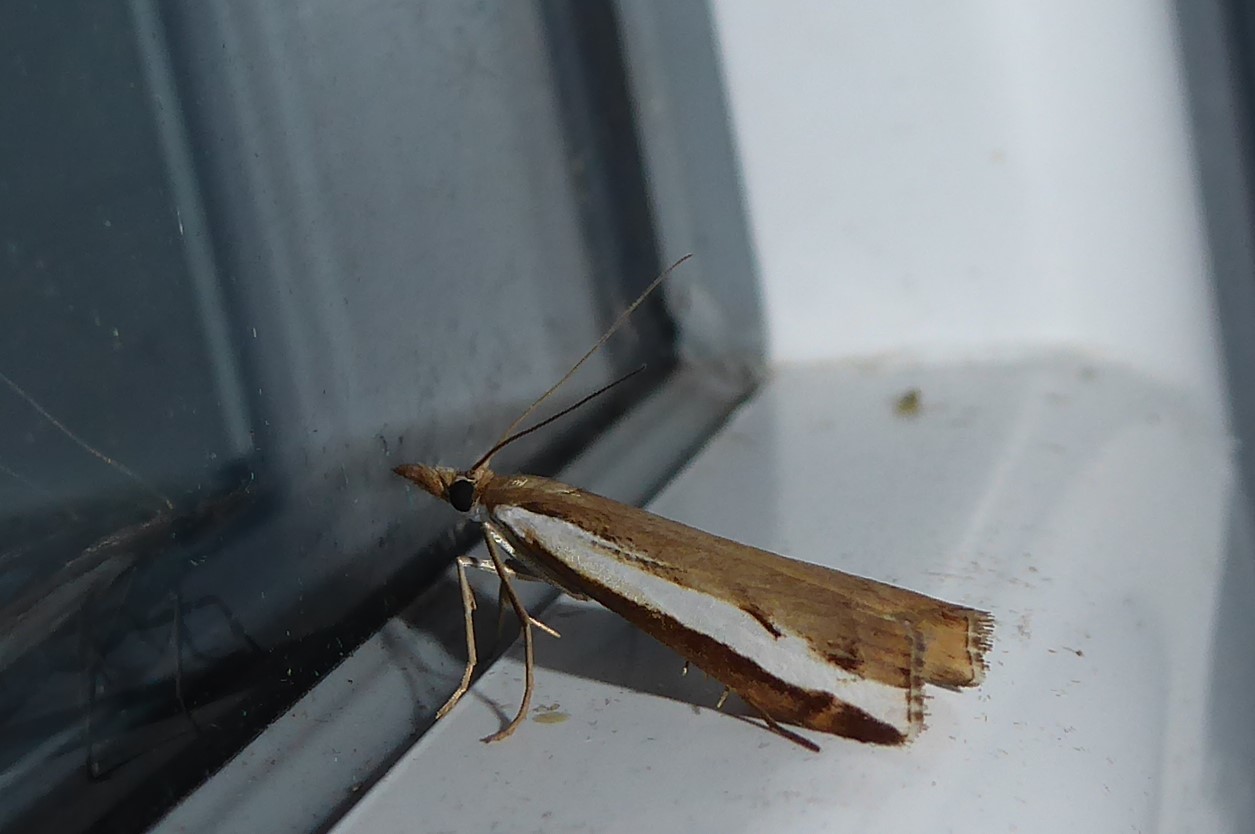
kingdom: Animalia
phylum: Arthropoda
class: Insecta
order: Lepidoptera
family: Crambidae
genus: Orocrambus
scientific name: Orocrambus flexuosellus
